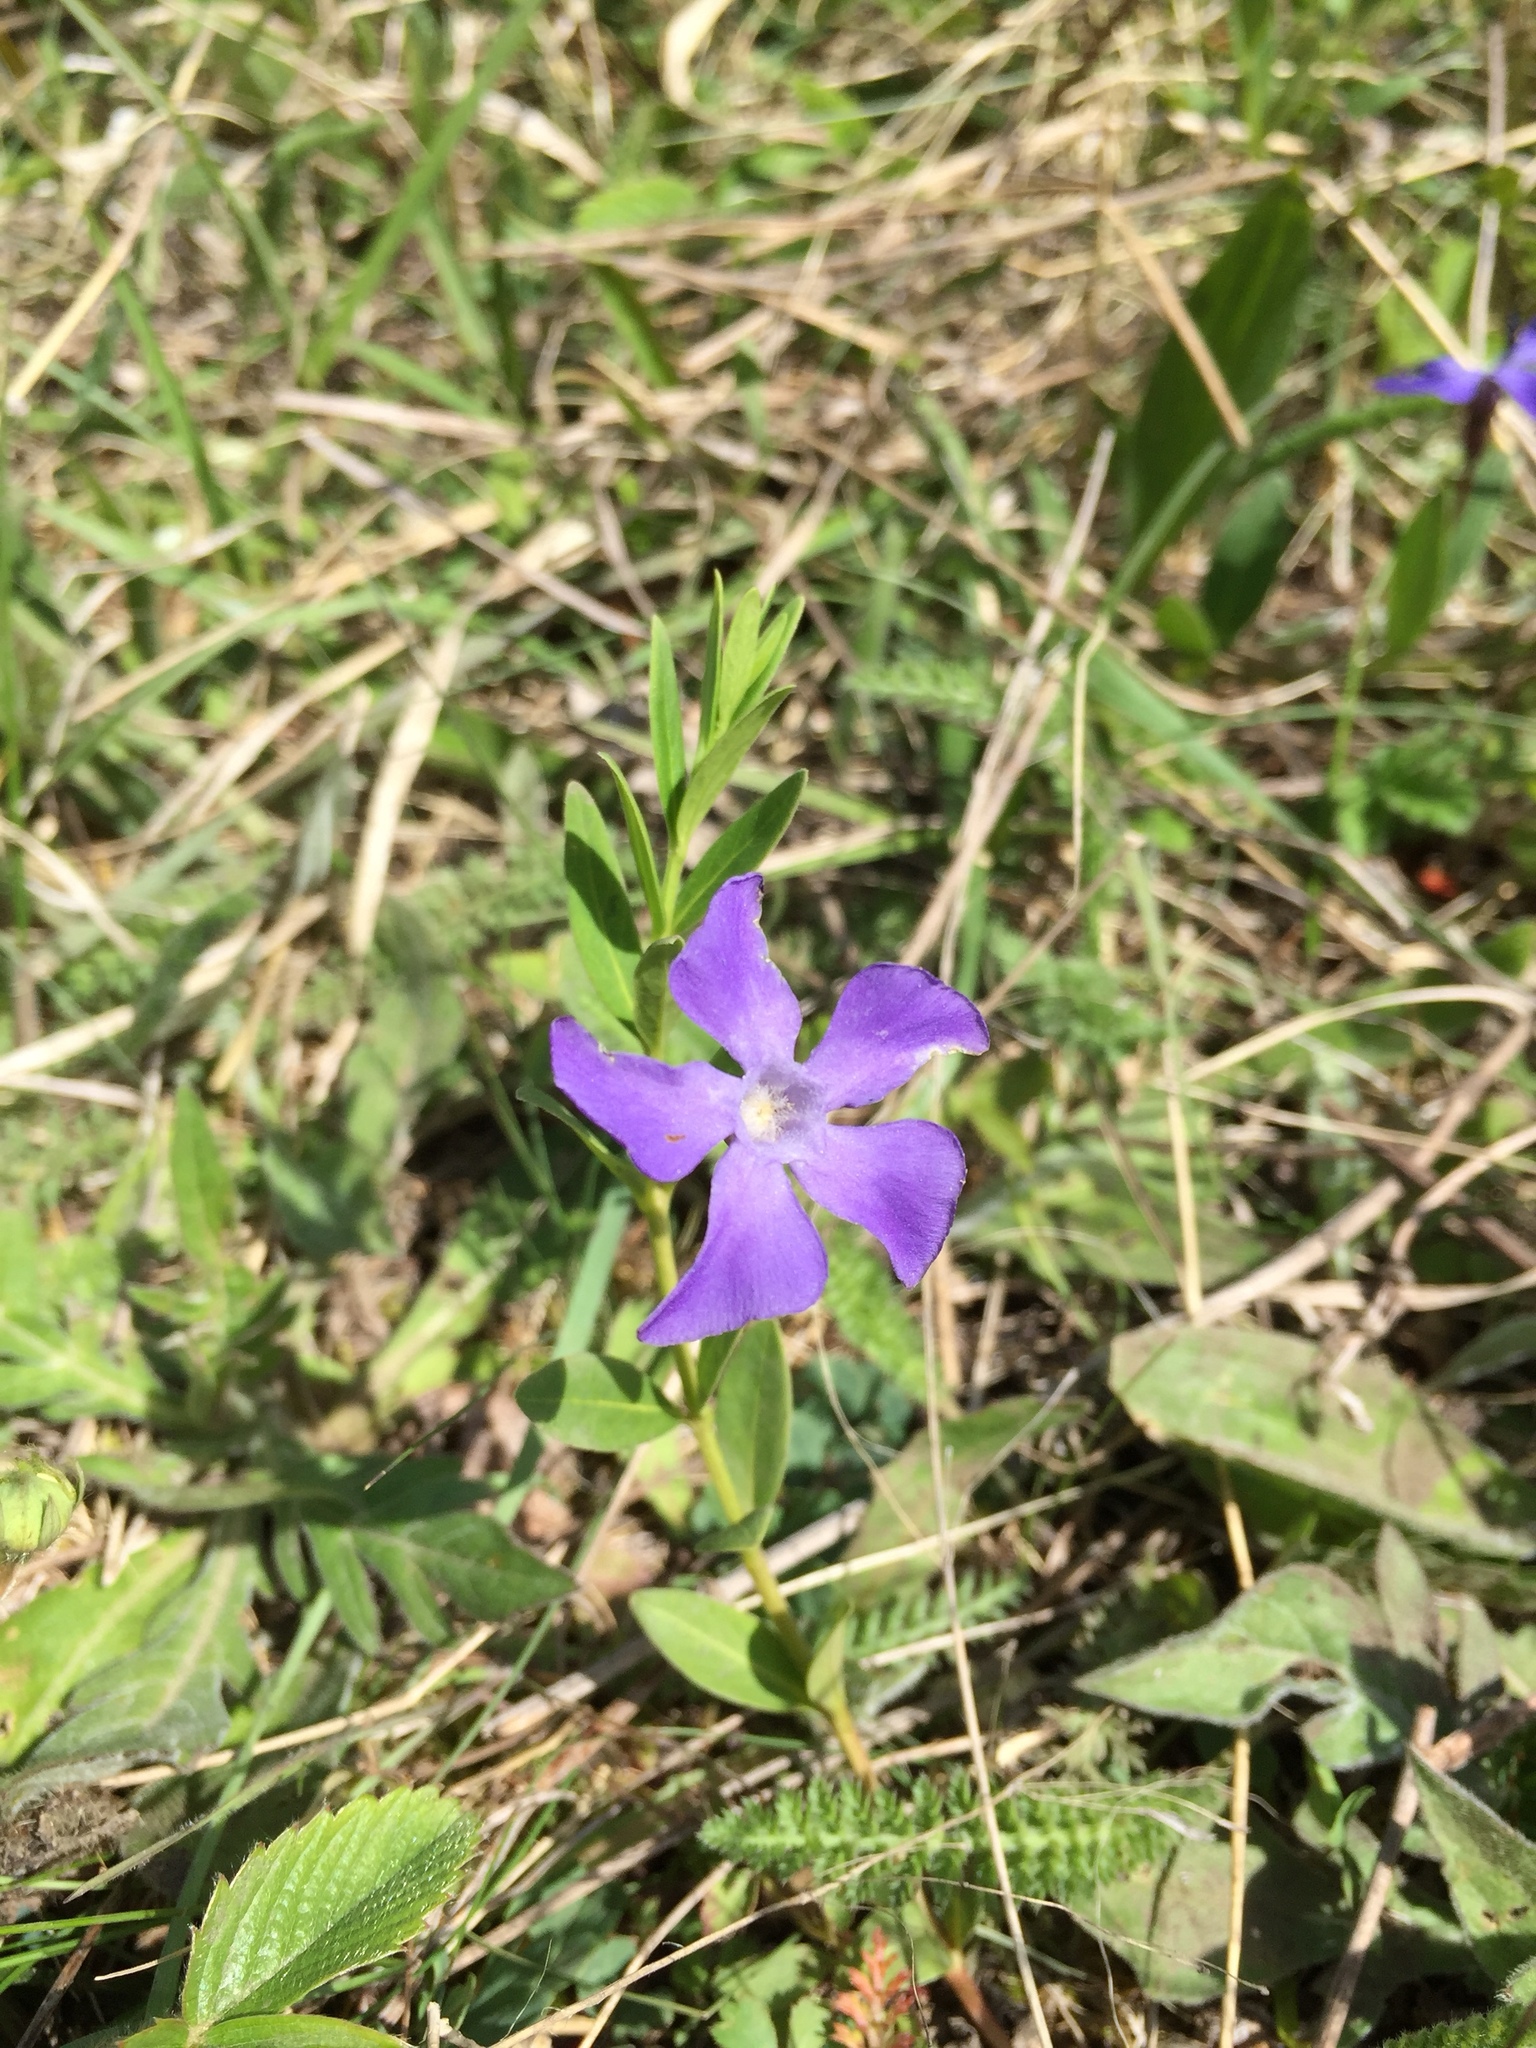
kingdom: Plantae
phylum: Tracheophyta
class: Magnoliopsida
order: Gentianales
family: Apocynaceae
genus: Vinca
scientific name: Vinca minor
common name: Lesser periwinkle
